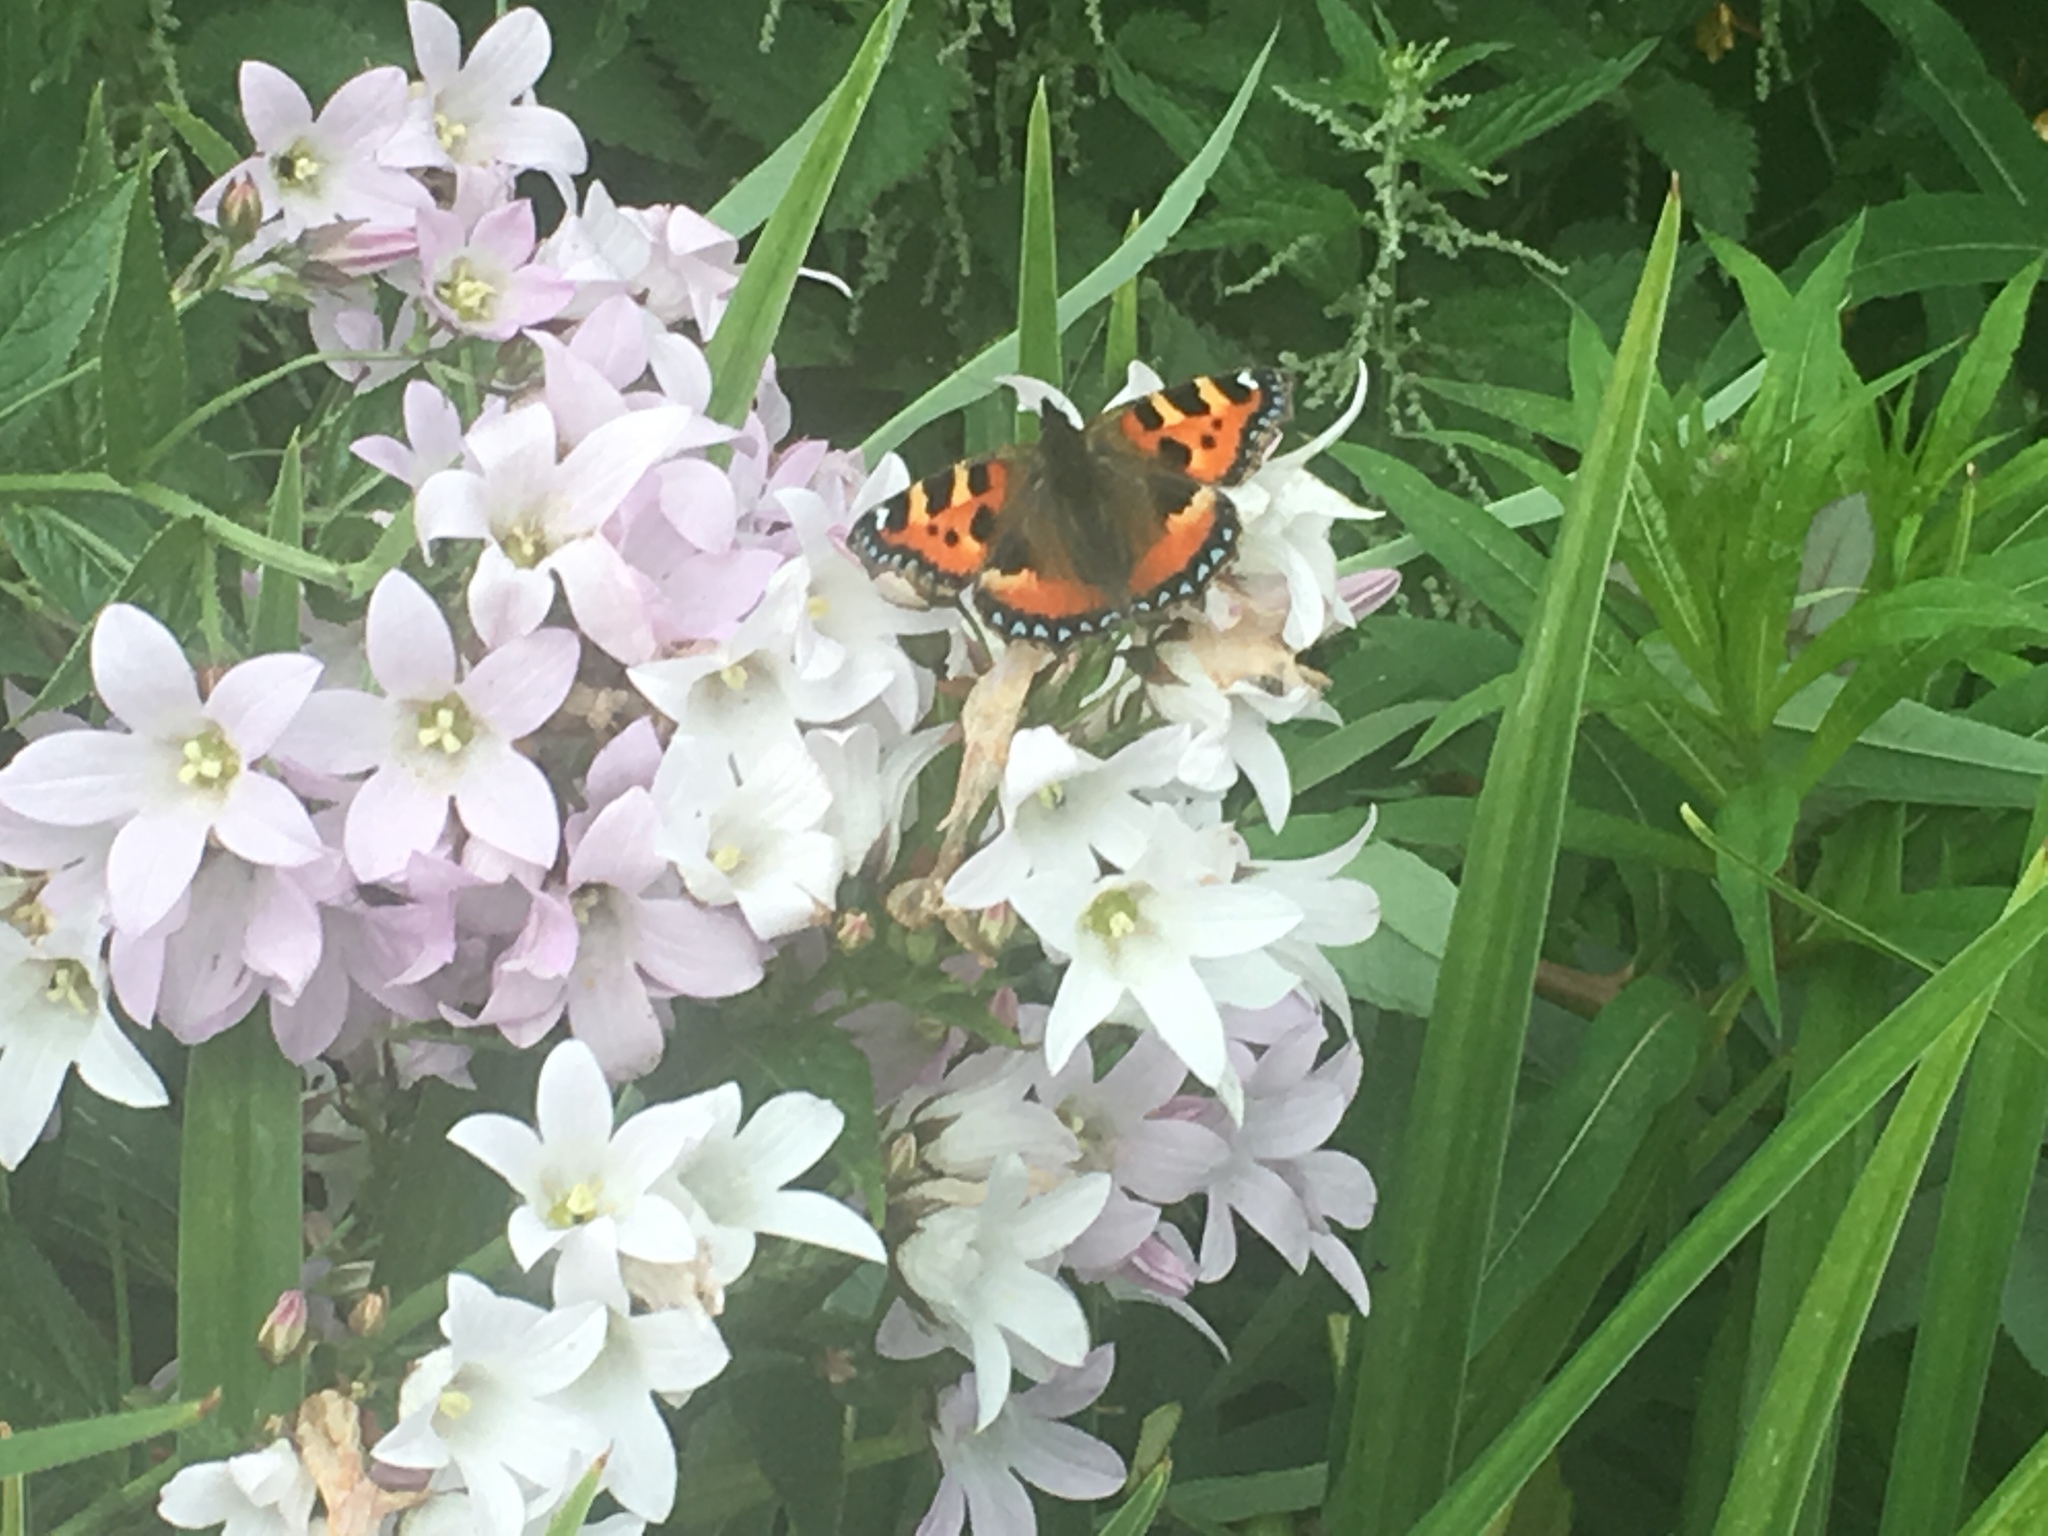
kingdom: Animalia
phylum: Arthropoda
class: Insecta
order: Lepidoptera
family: Nymphalidae
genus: Aglais
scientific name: Aglais urticae
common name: Small tortoiseshell
